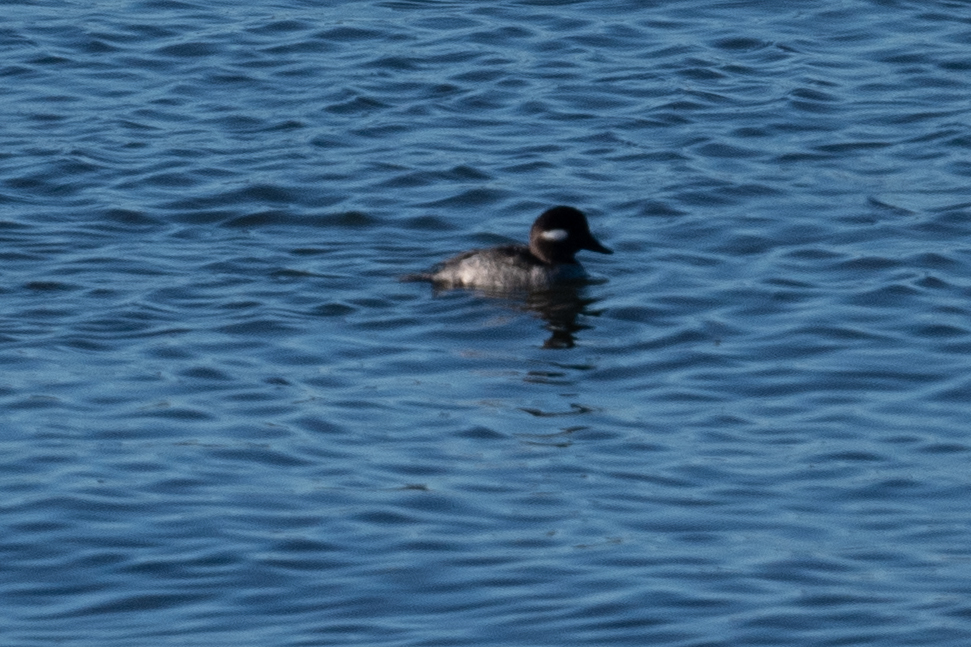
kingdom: Animalia
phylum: Chordata
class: Aves
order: Anseriformes
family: Anatidae
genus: Bucephala
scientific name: Bucephala albeola
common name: Bufflehead
